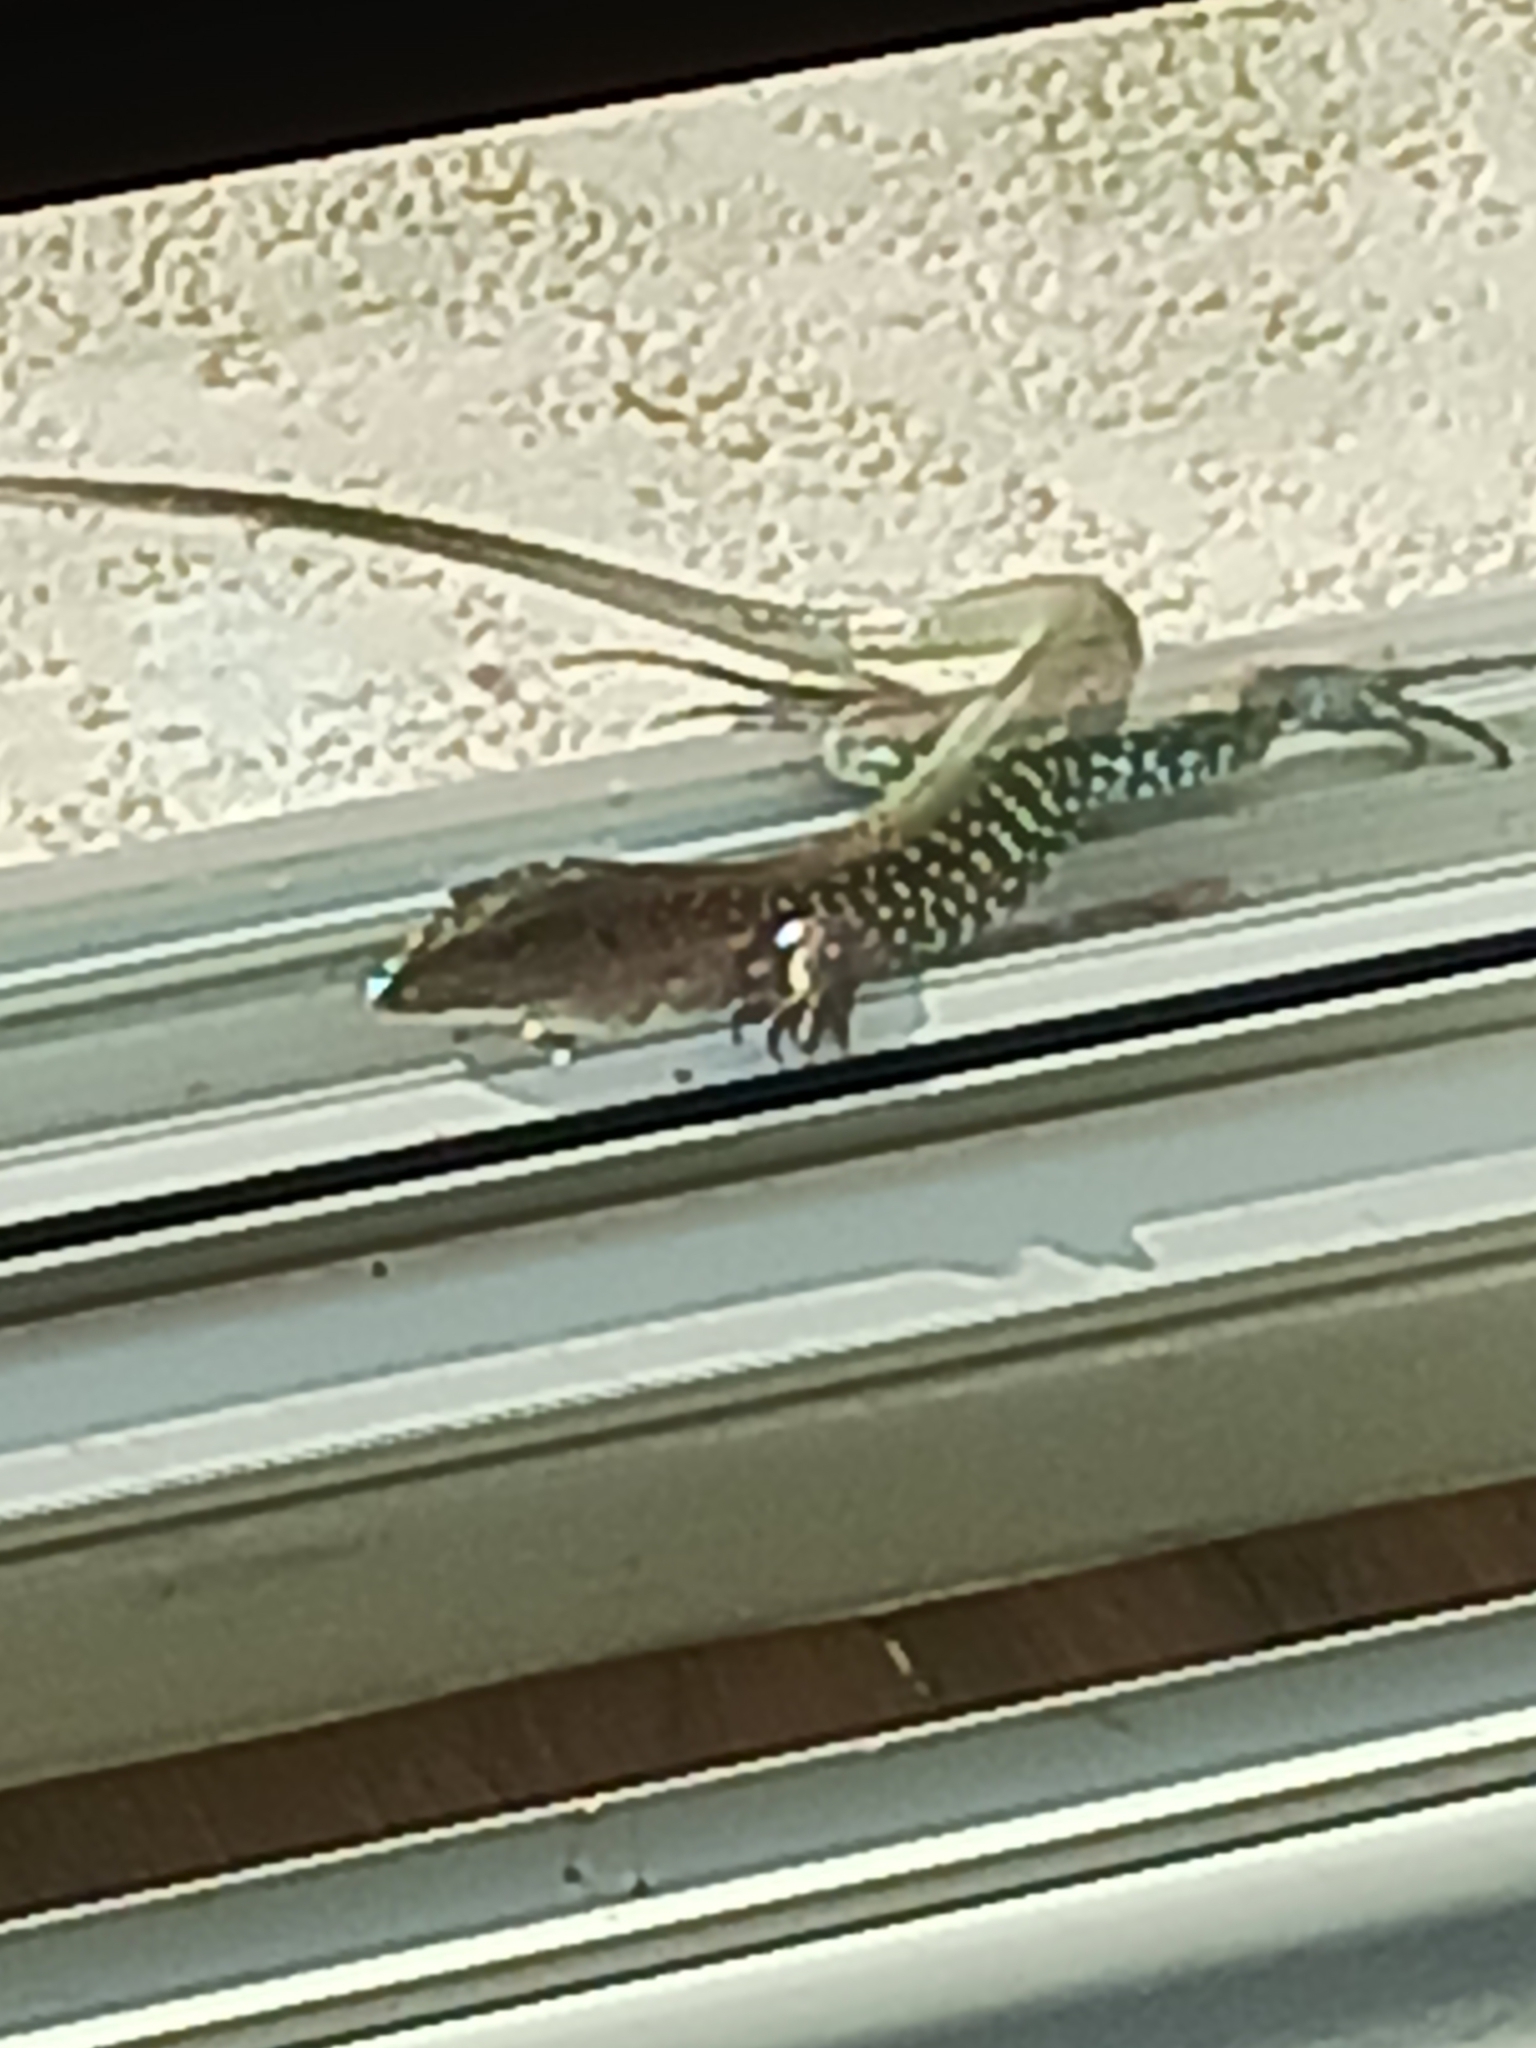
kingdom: Animalia
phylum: Chordata
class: Squamata
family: Teiidae
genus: Ameiva
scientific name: Ameiva ameiva
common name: Giant ameiva
